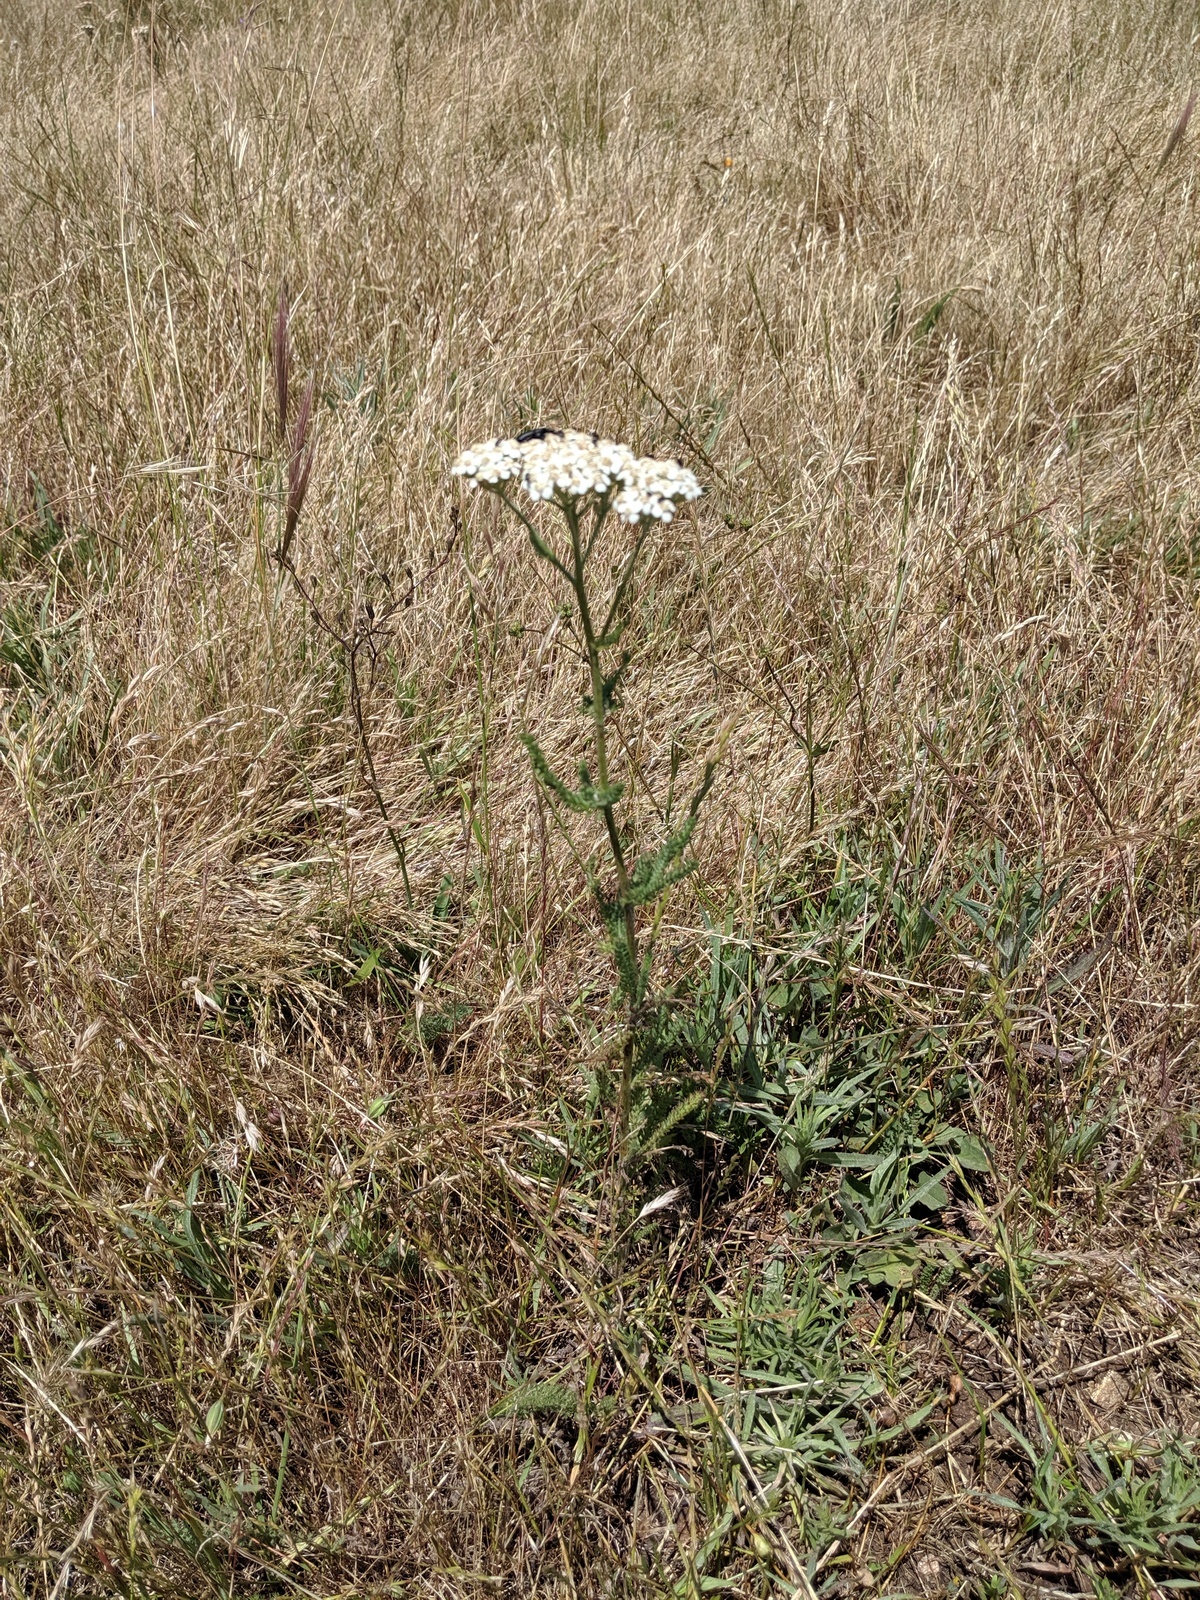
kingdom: Plantae
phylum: Tracheophyta
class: Magnoliopsida
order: Asterales
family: Asteraceae
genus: Achillea
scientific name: Achillea millefolium
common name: Yarrow
